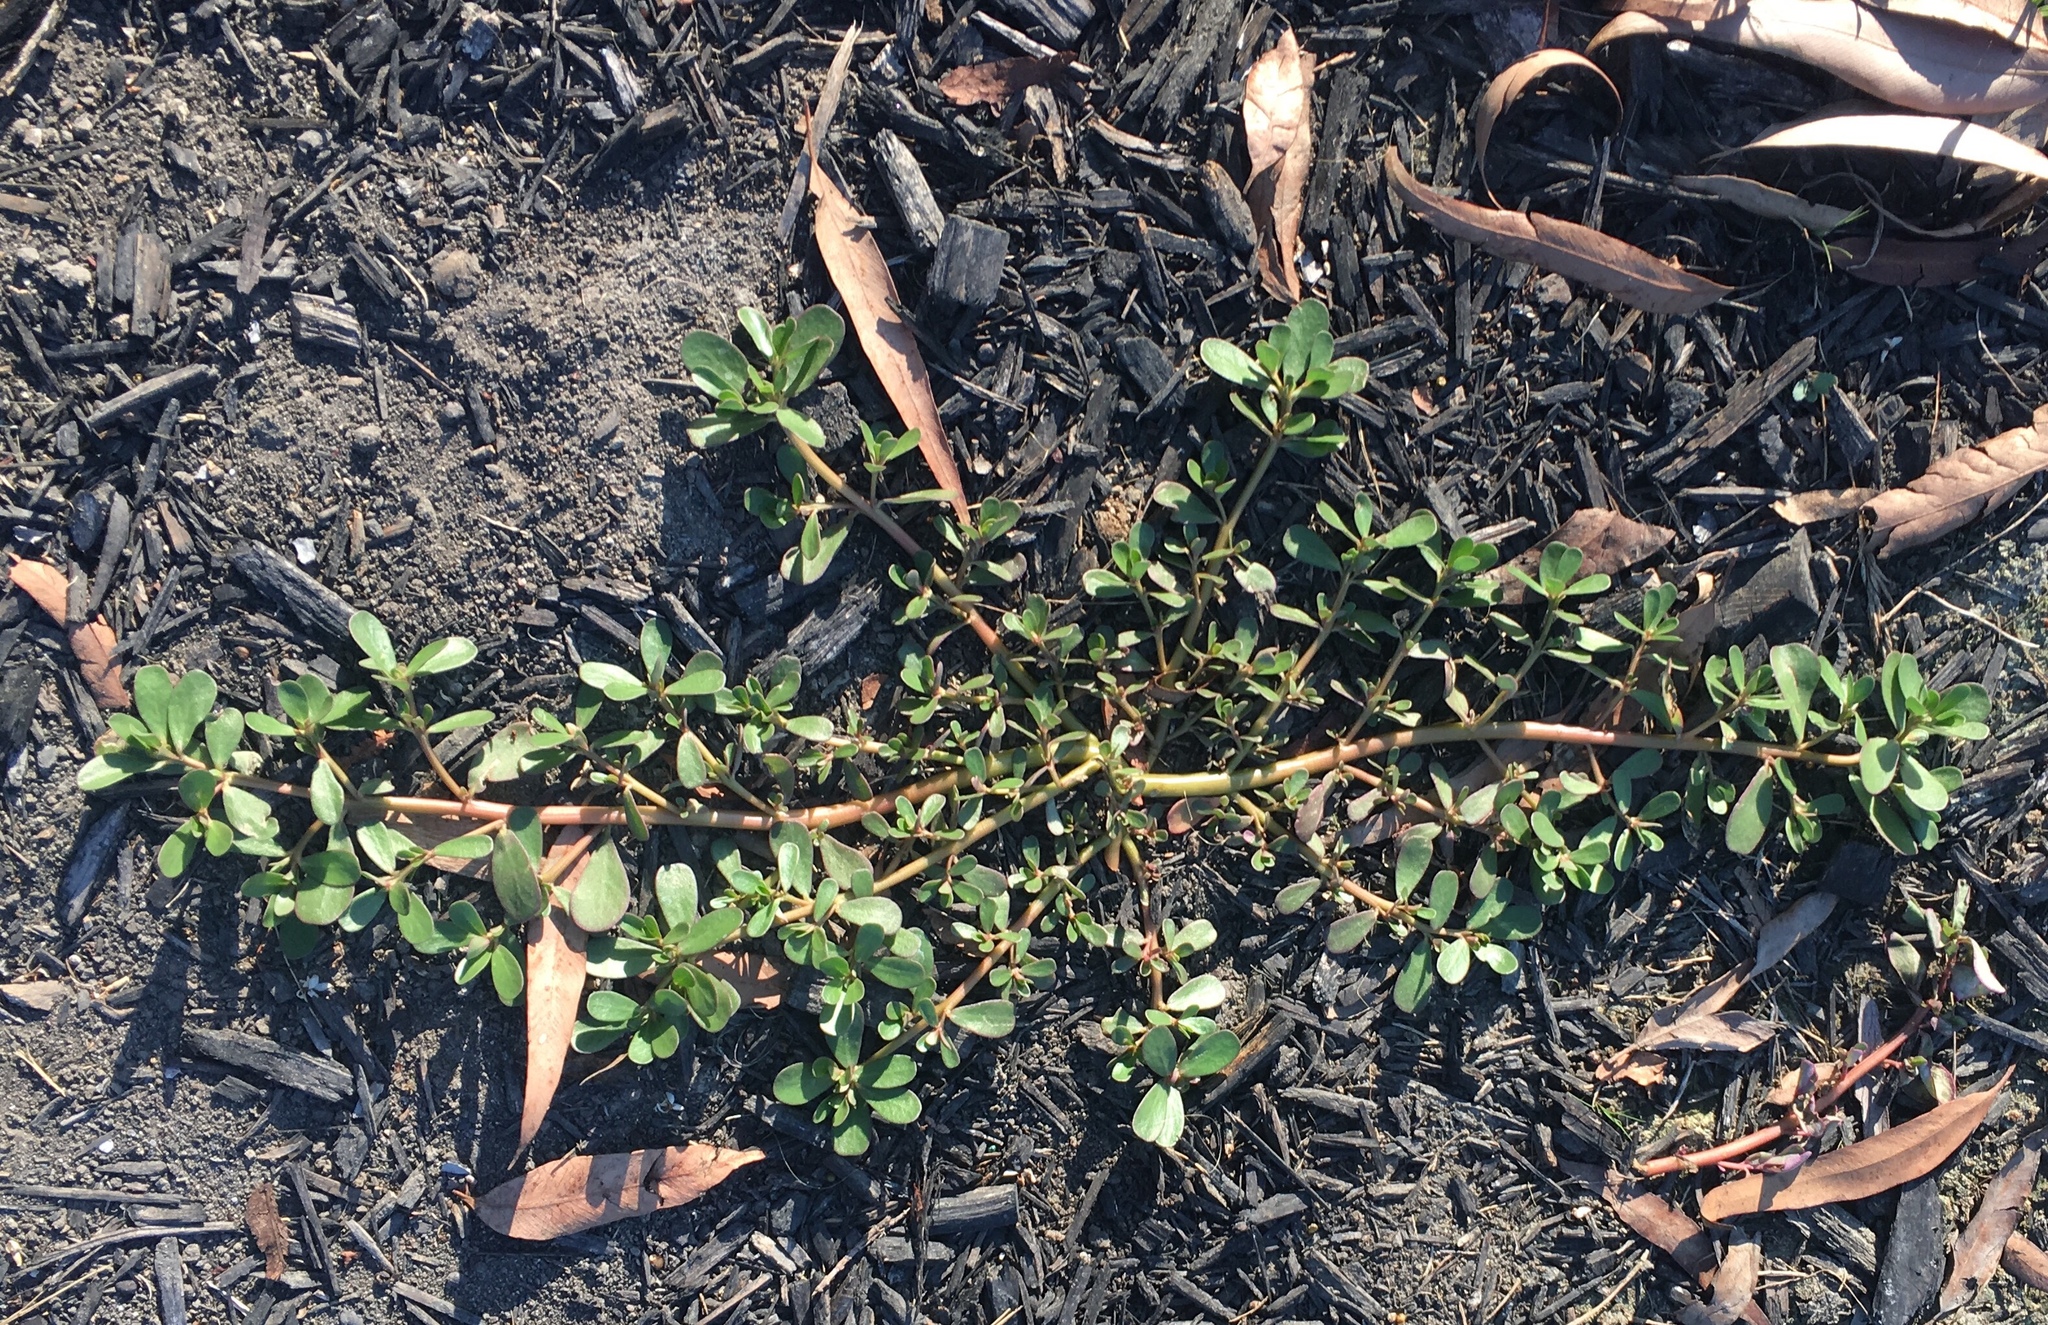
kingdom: Plantae
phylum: Tracheophyta
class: Magnoliopsida
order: Caryophyllales
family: Portulacaceae
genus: Portulaca
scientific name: Portulaca oleracea
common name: Common purslane
